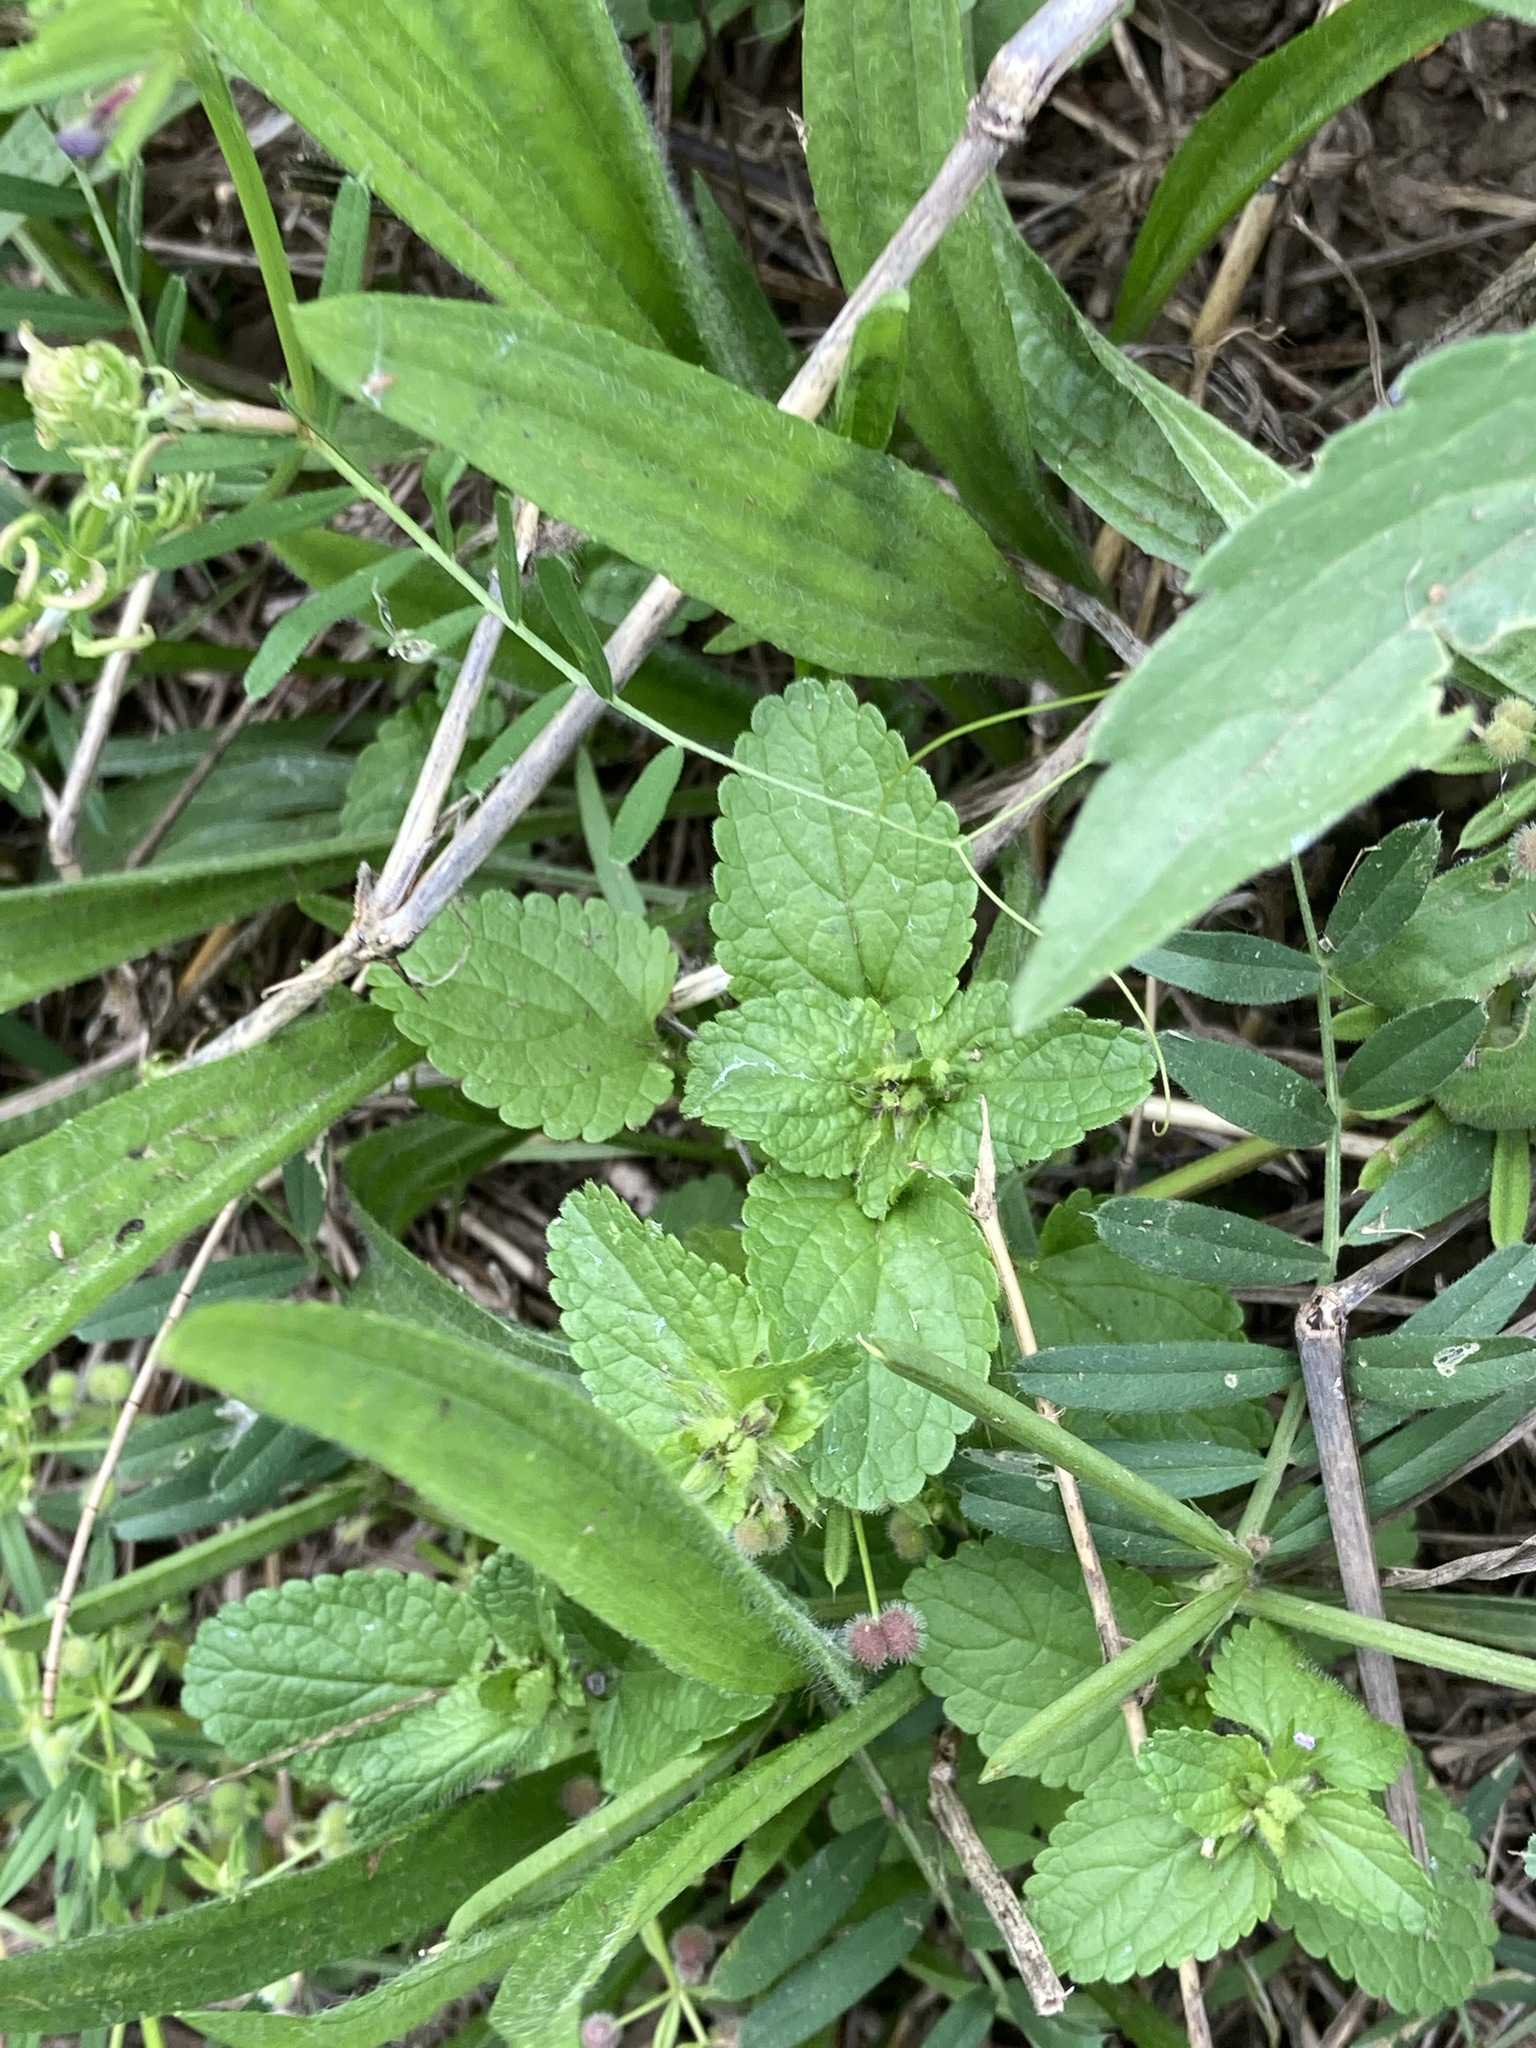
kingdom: Plantae
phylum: Tracheophyta
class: Magnoliopsida
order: Lamiales
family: Lamiaceae
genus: Stachys
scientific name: Stachys arvensis
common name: Field woundwort
